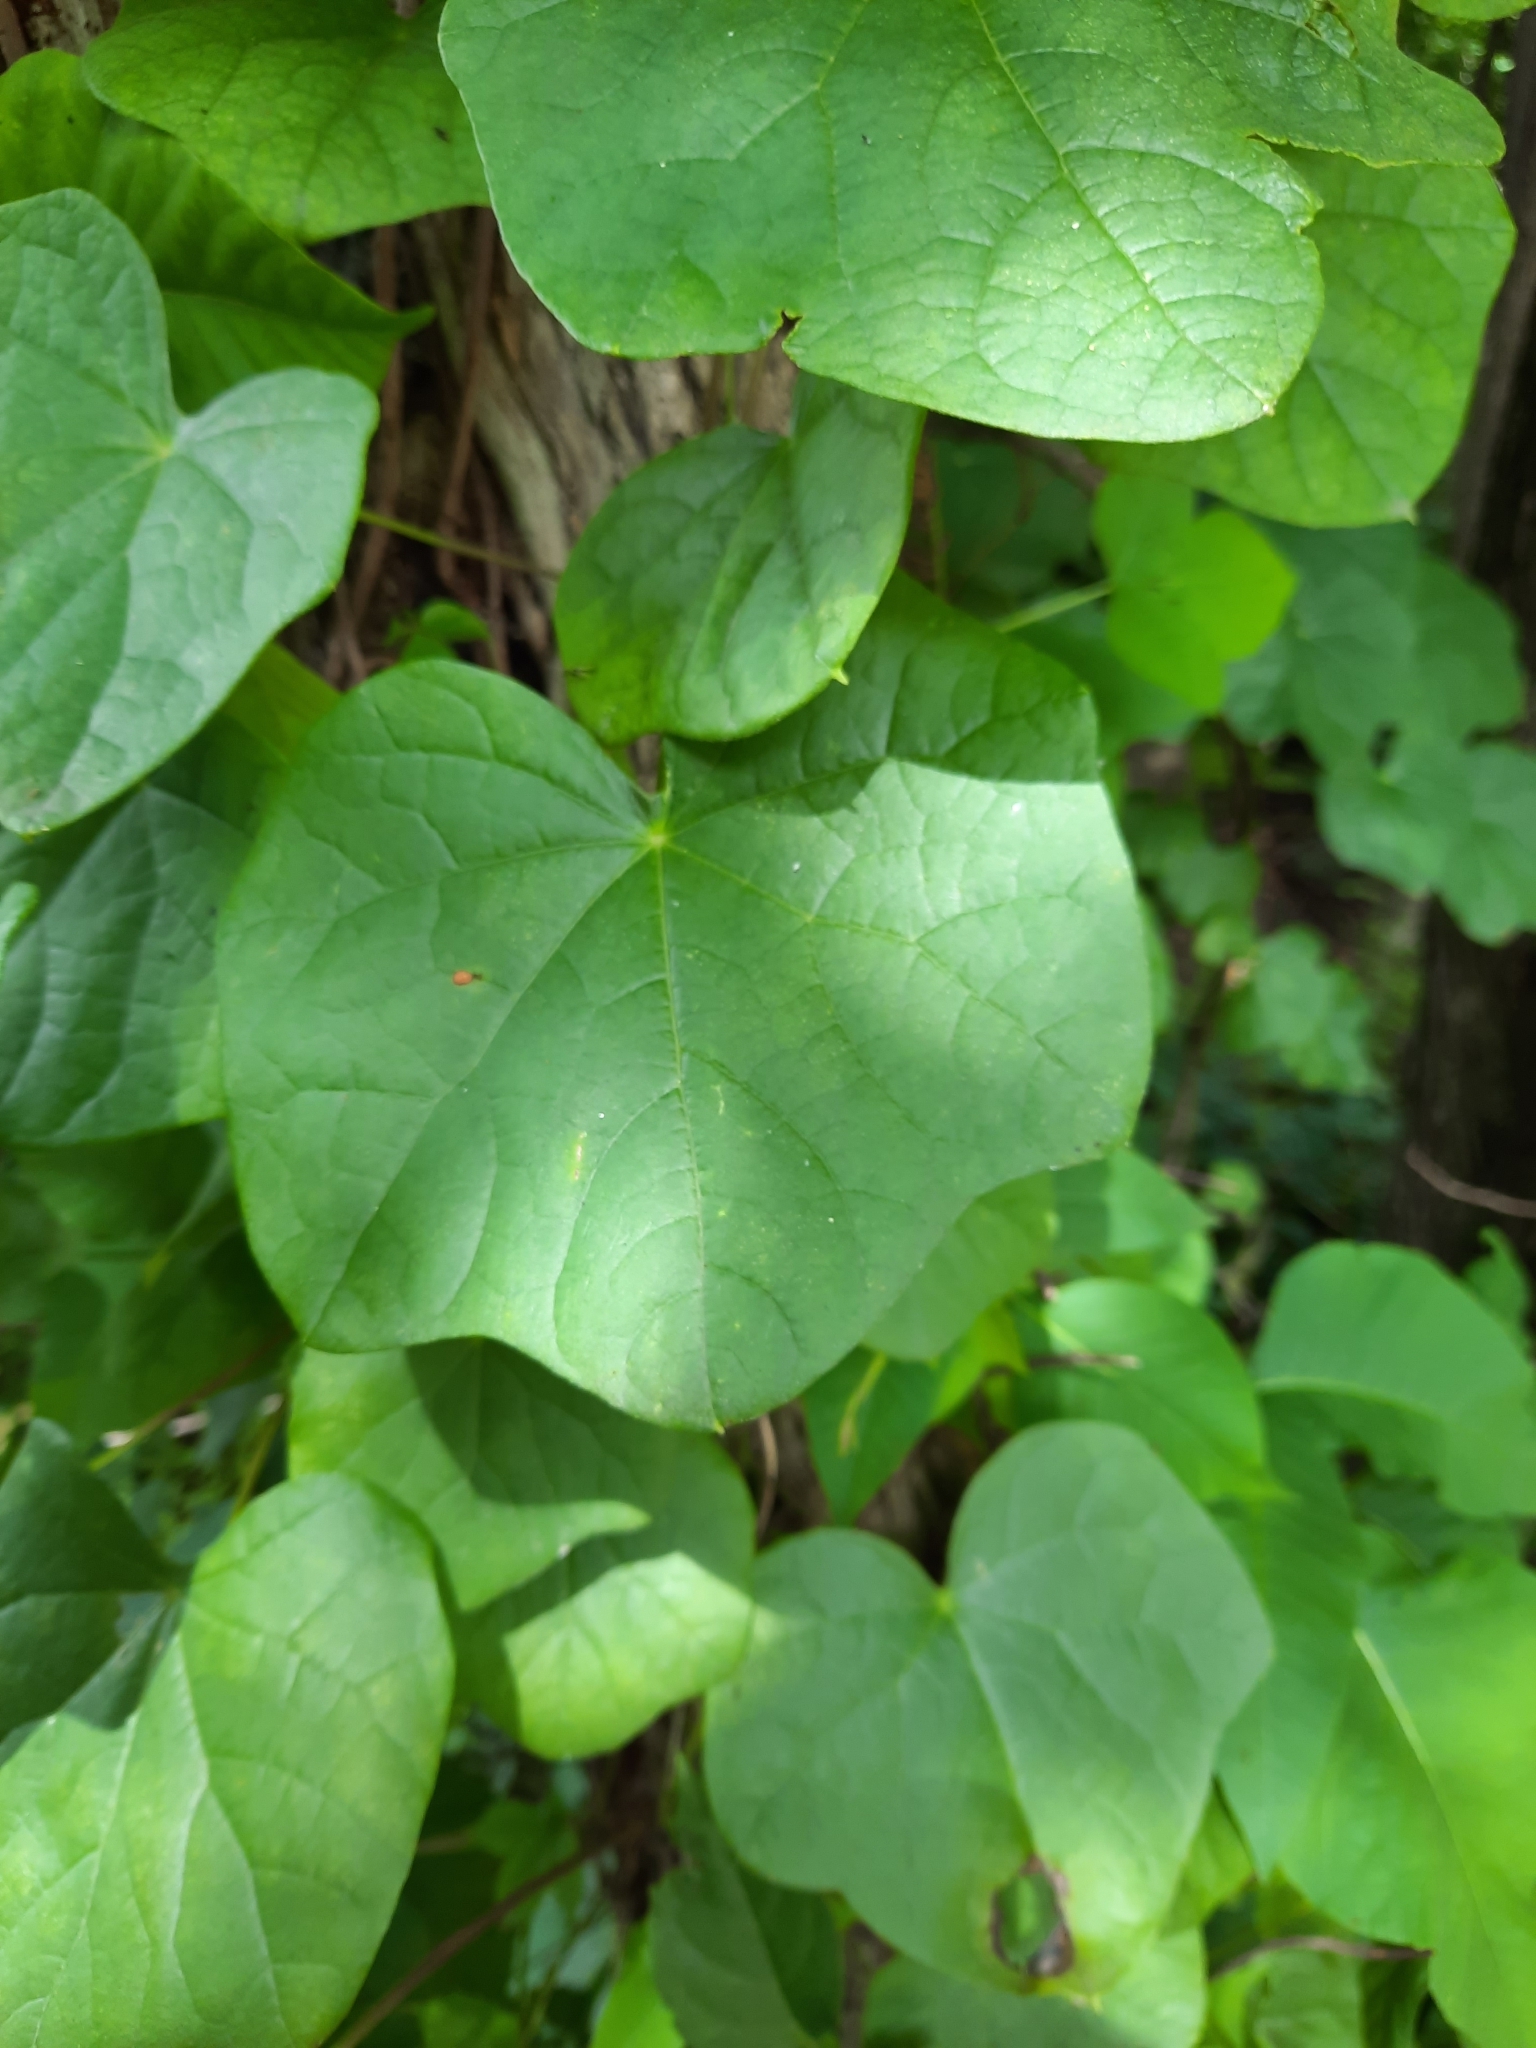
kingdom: Plantae
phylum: Tracheophyta
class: Magnoliopsida
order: Ranunculales
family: Menispermaceae
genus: Menispermum
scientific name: Menispermum canadense
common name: Moonseed
